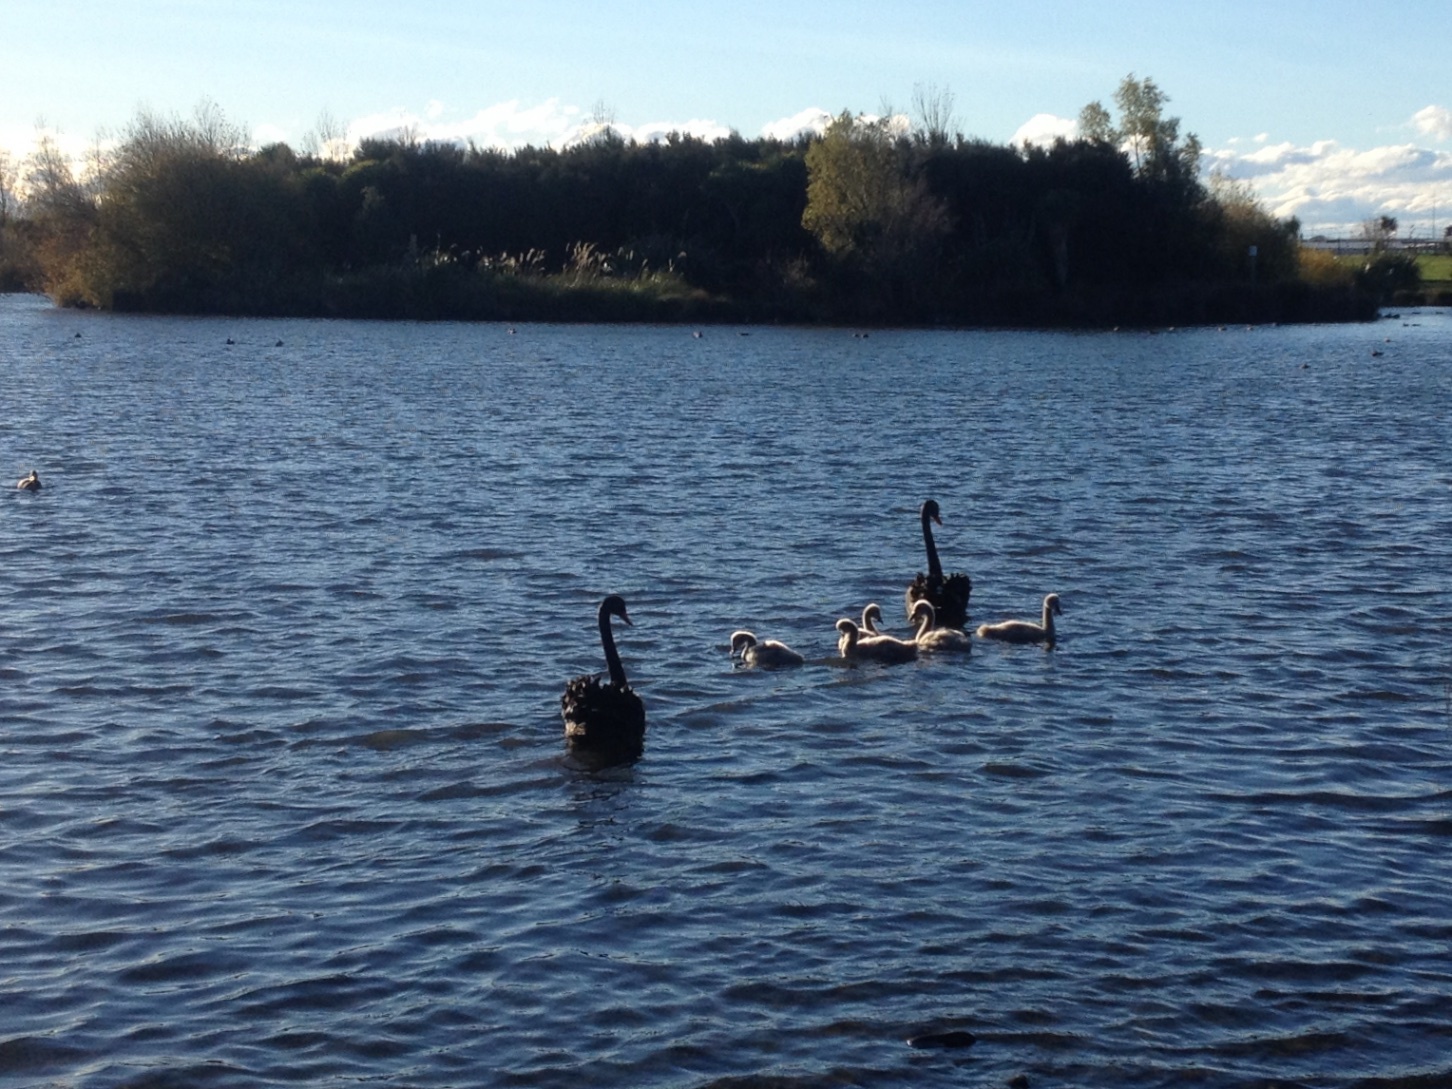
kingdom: Animalia
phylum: Chordata
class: Aves
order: Anseriformes
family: Anatidae
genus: Cygnus
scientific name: Cygnus atratus
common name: Black swan
